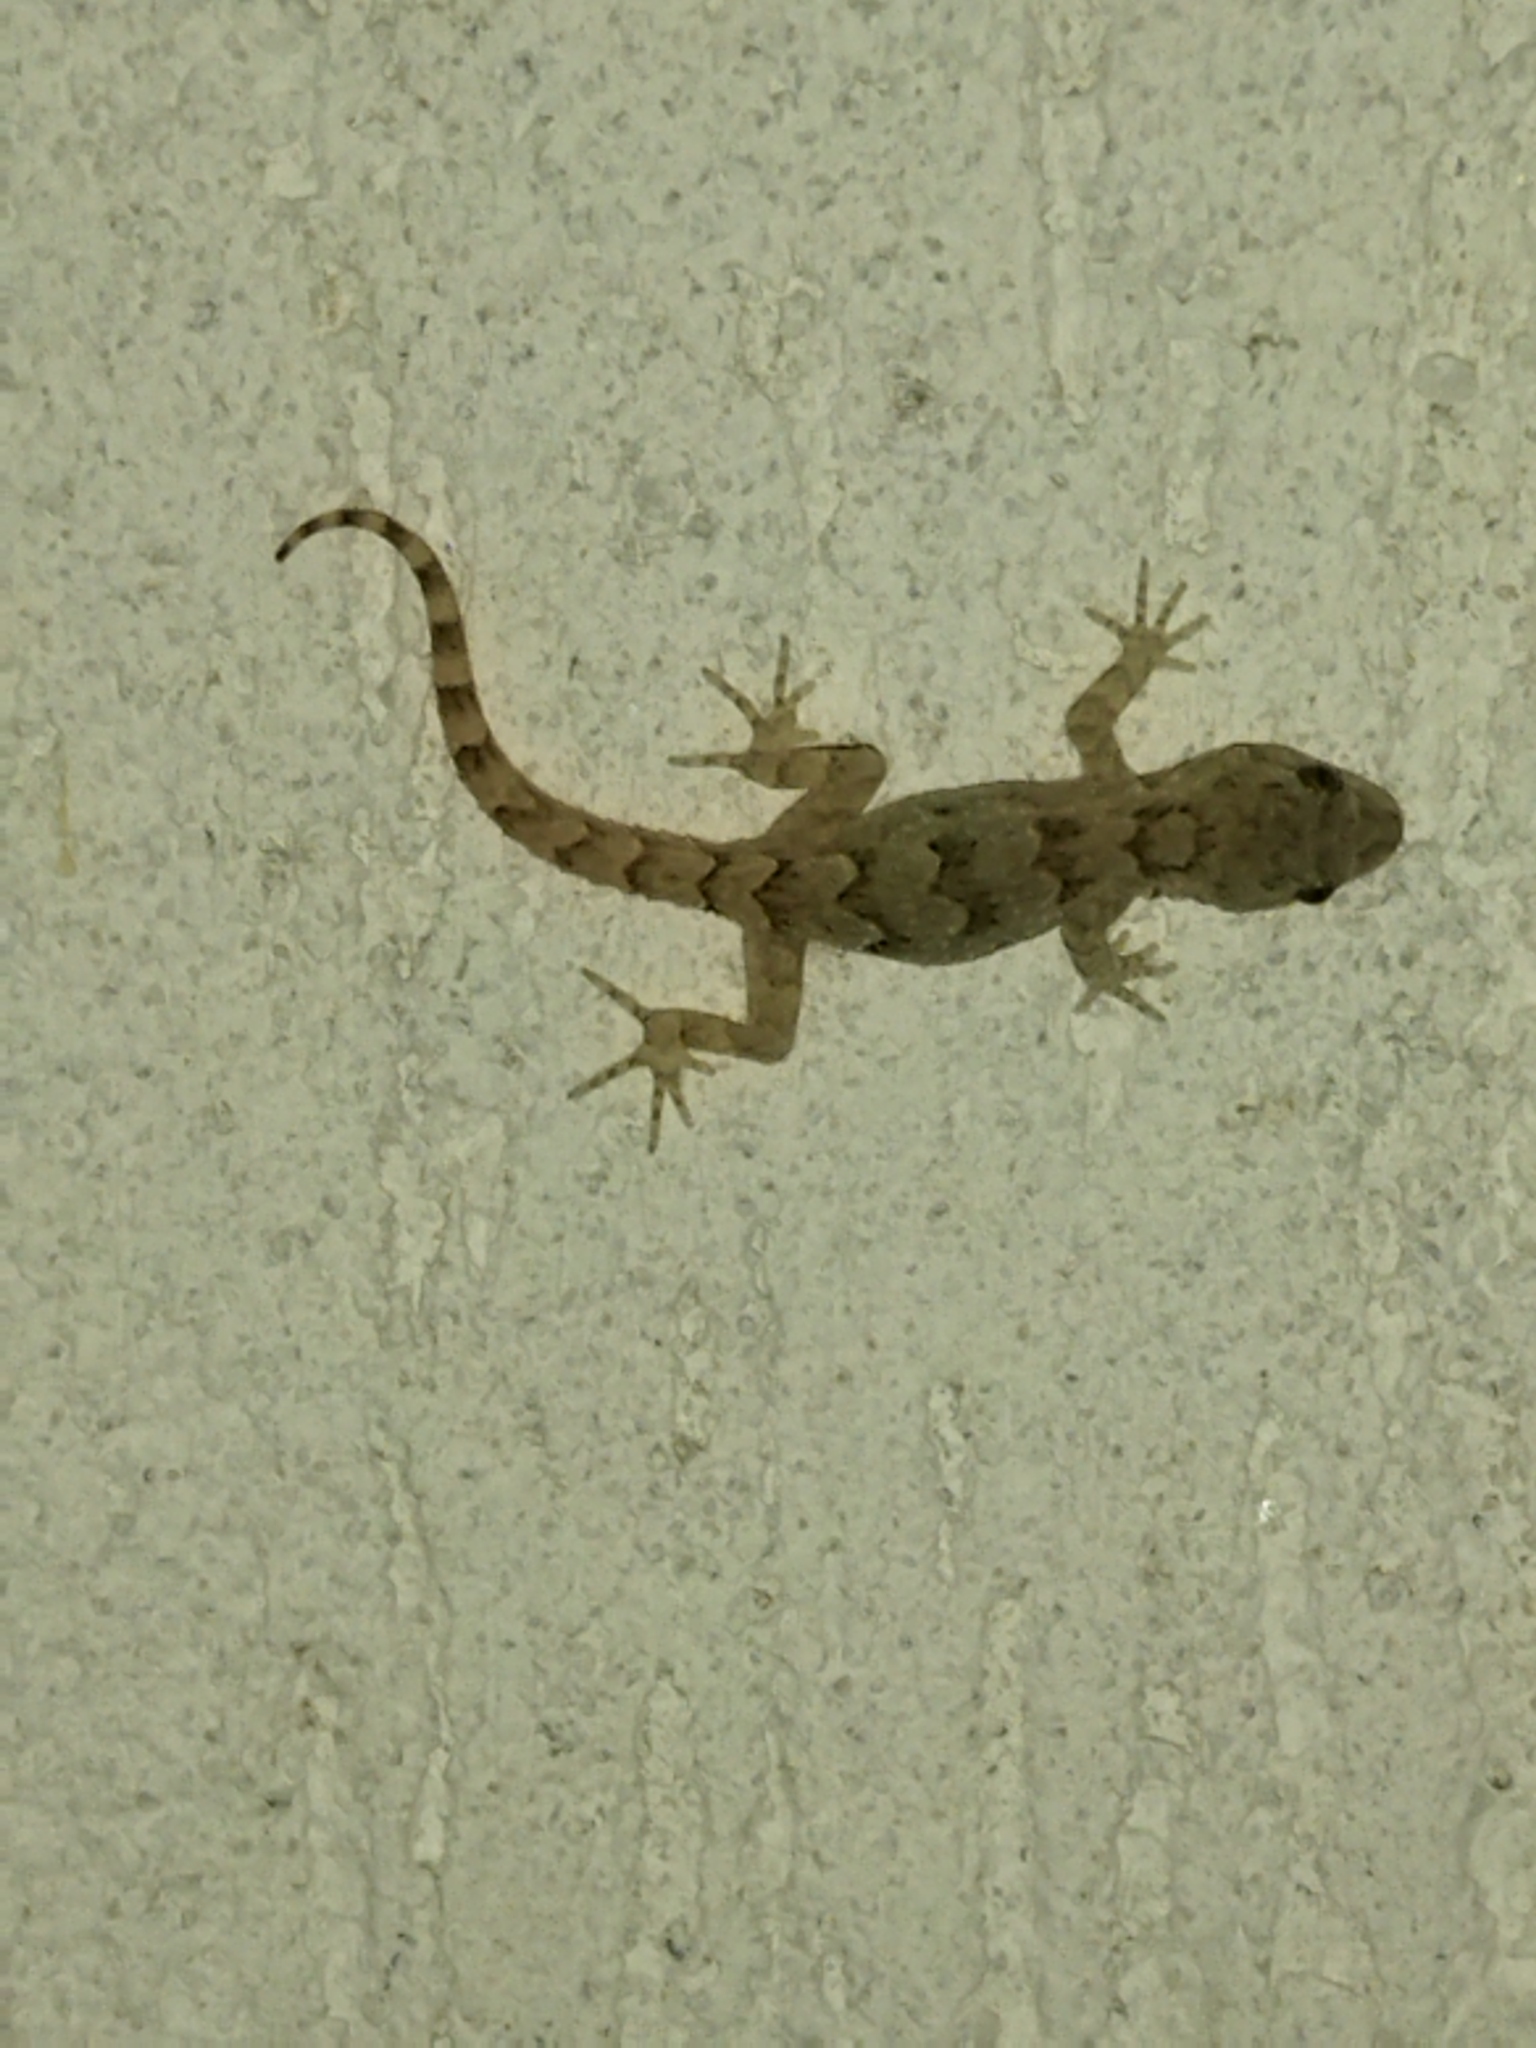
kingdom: Animalia
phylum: Chordata
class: Squamata
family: Gekkonidae
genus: Mediodactylus
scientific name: Mediodactylus kotschyi
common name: Kotschy's gecko
